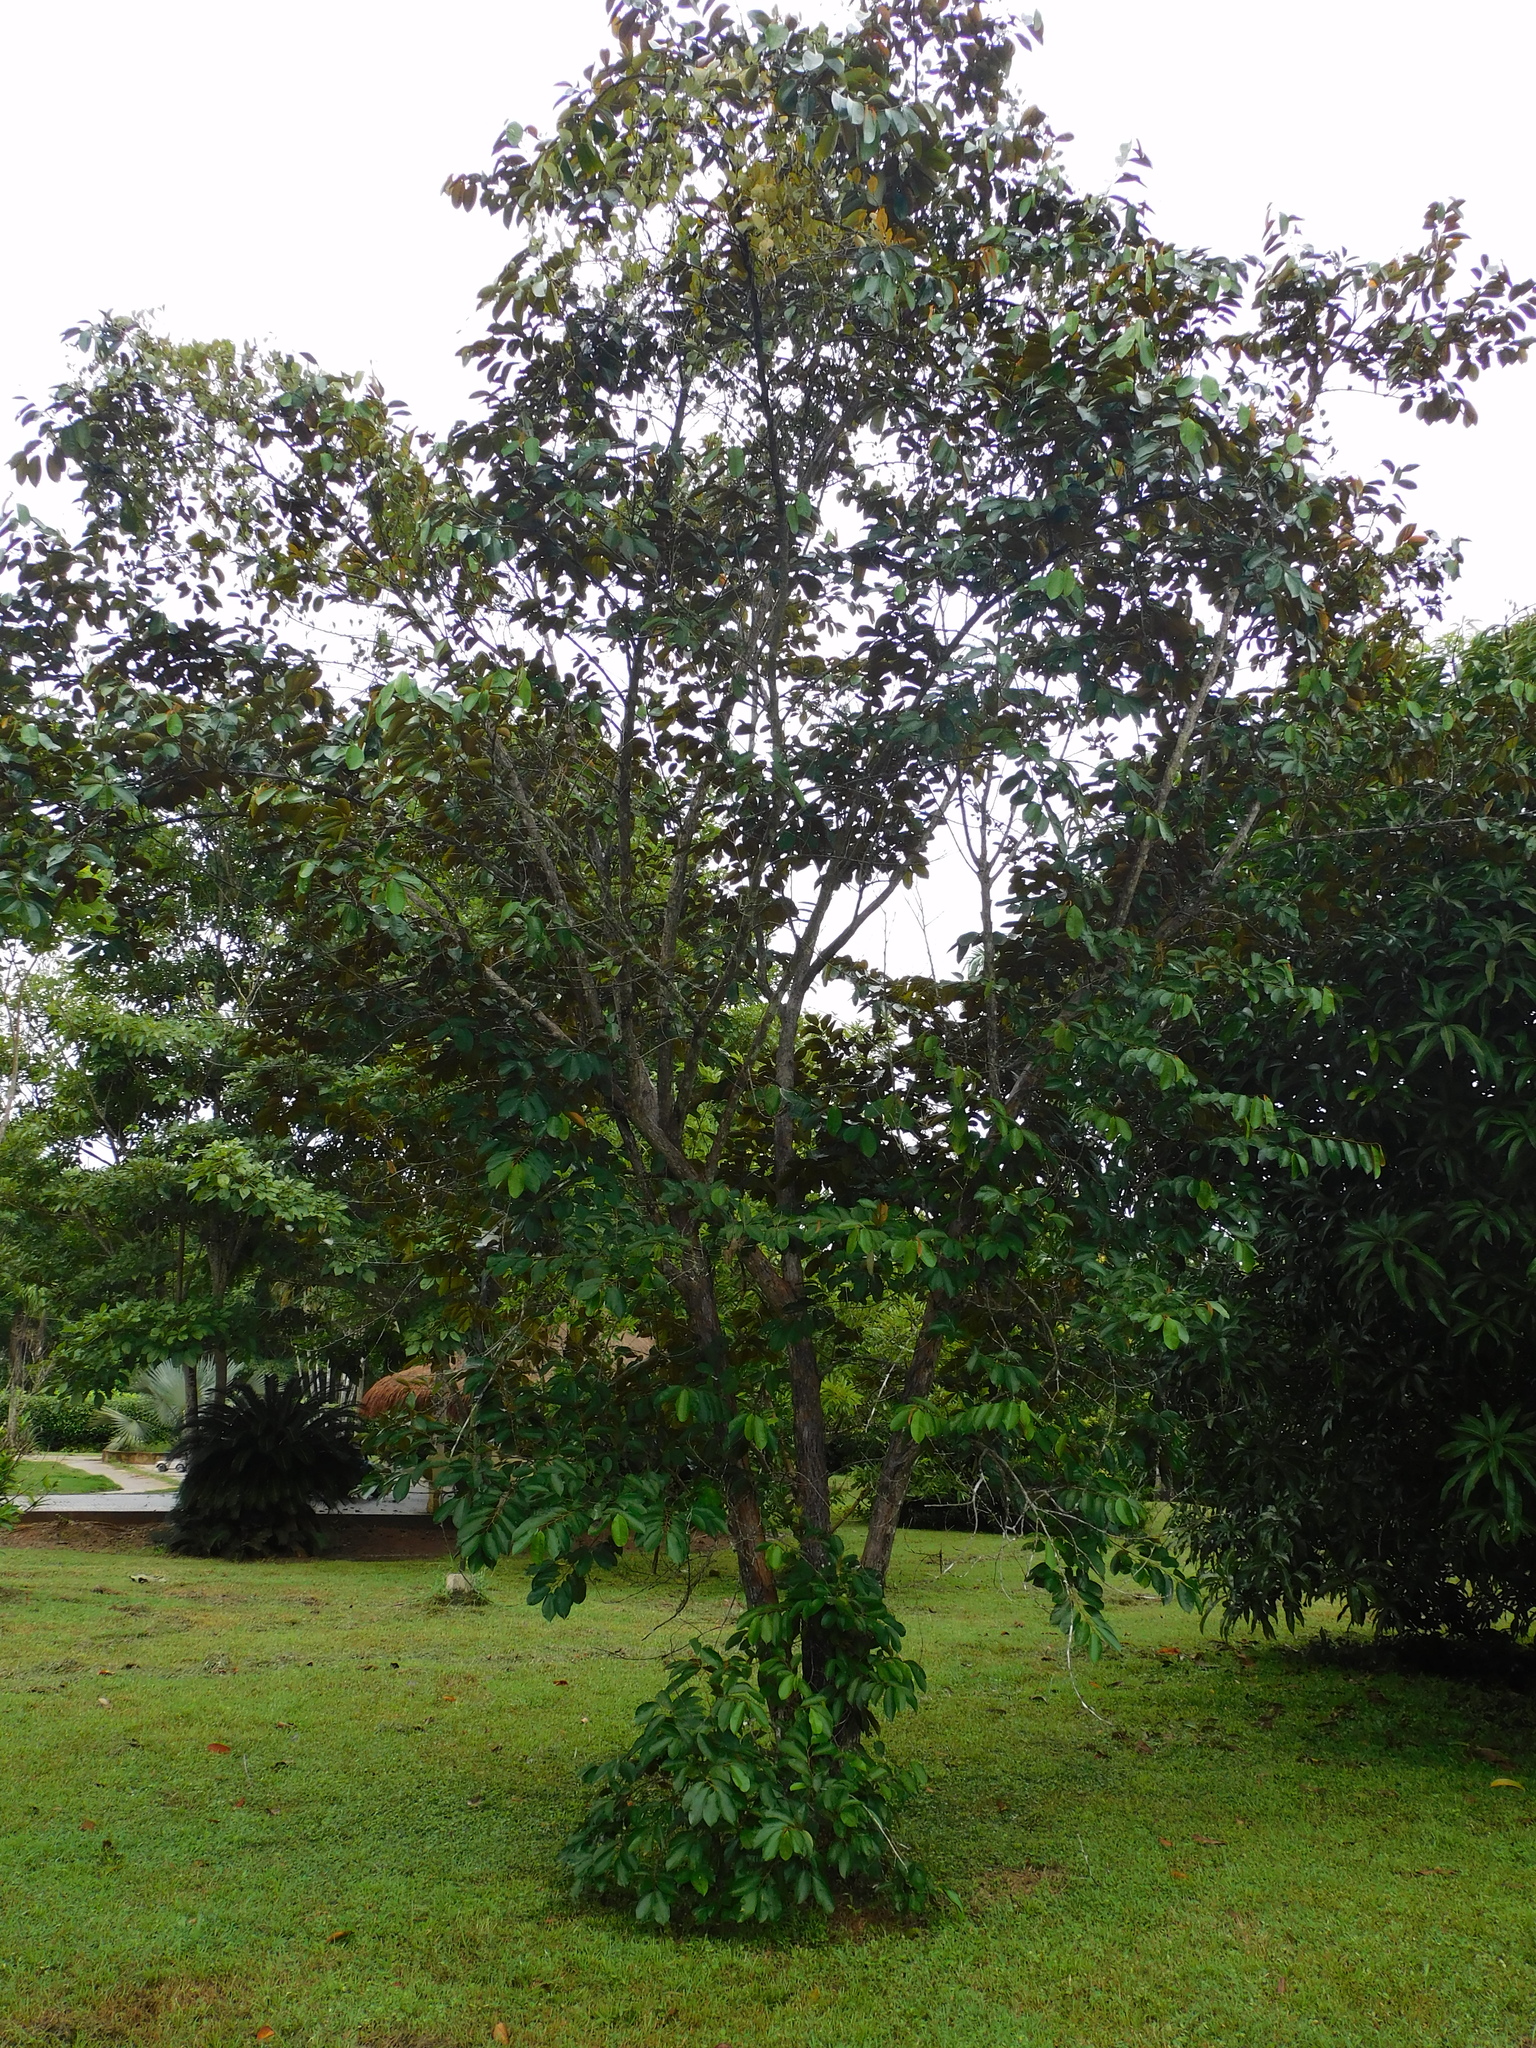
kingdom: Plantae
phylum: Tracheophyta
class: Magnoliopsida
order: Ericales
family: Sapotaceae
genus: Chrysophyllum
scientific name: Chrysophyllum cainito
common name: Star-apple
